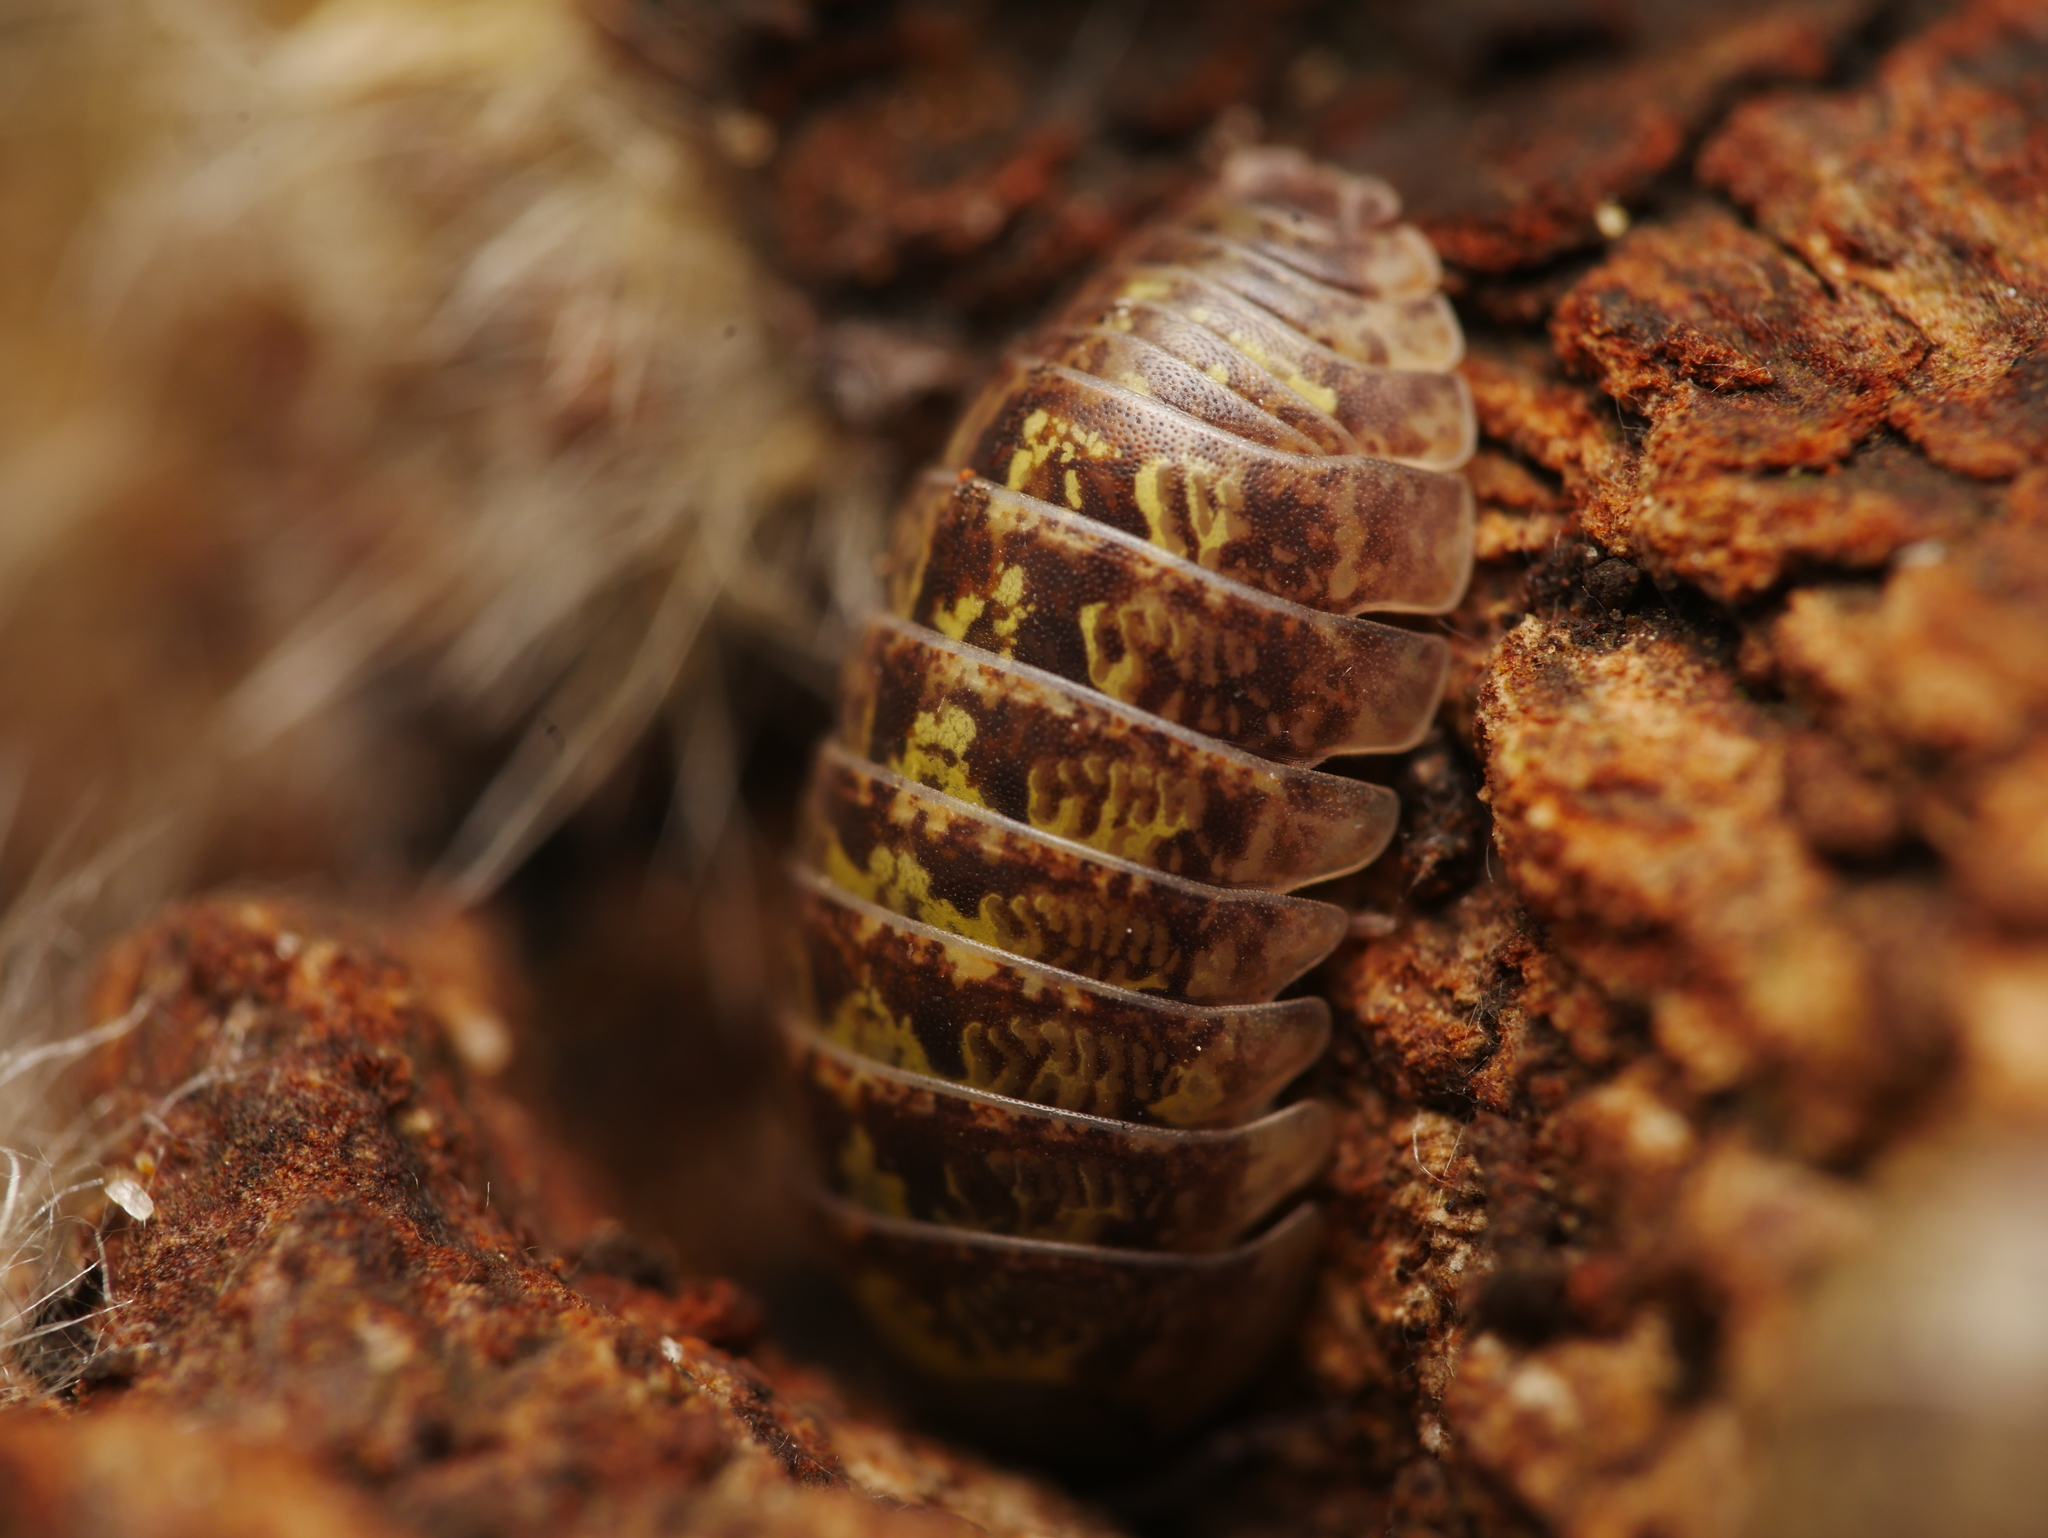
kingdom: Animalia
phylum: Arthropoda
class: Malacostraca
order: Isopoda
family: Armadillidiidae
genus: Armadillidium
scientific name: Armadillidium vulgare
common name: Common pill woodlouse
